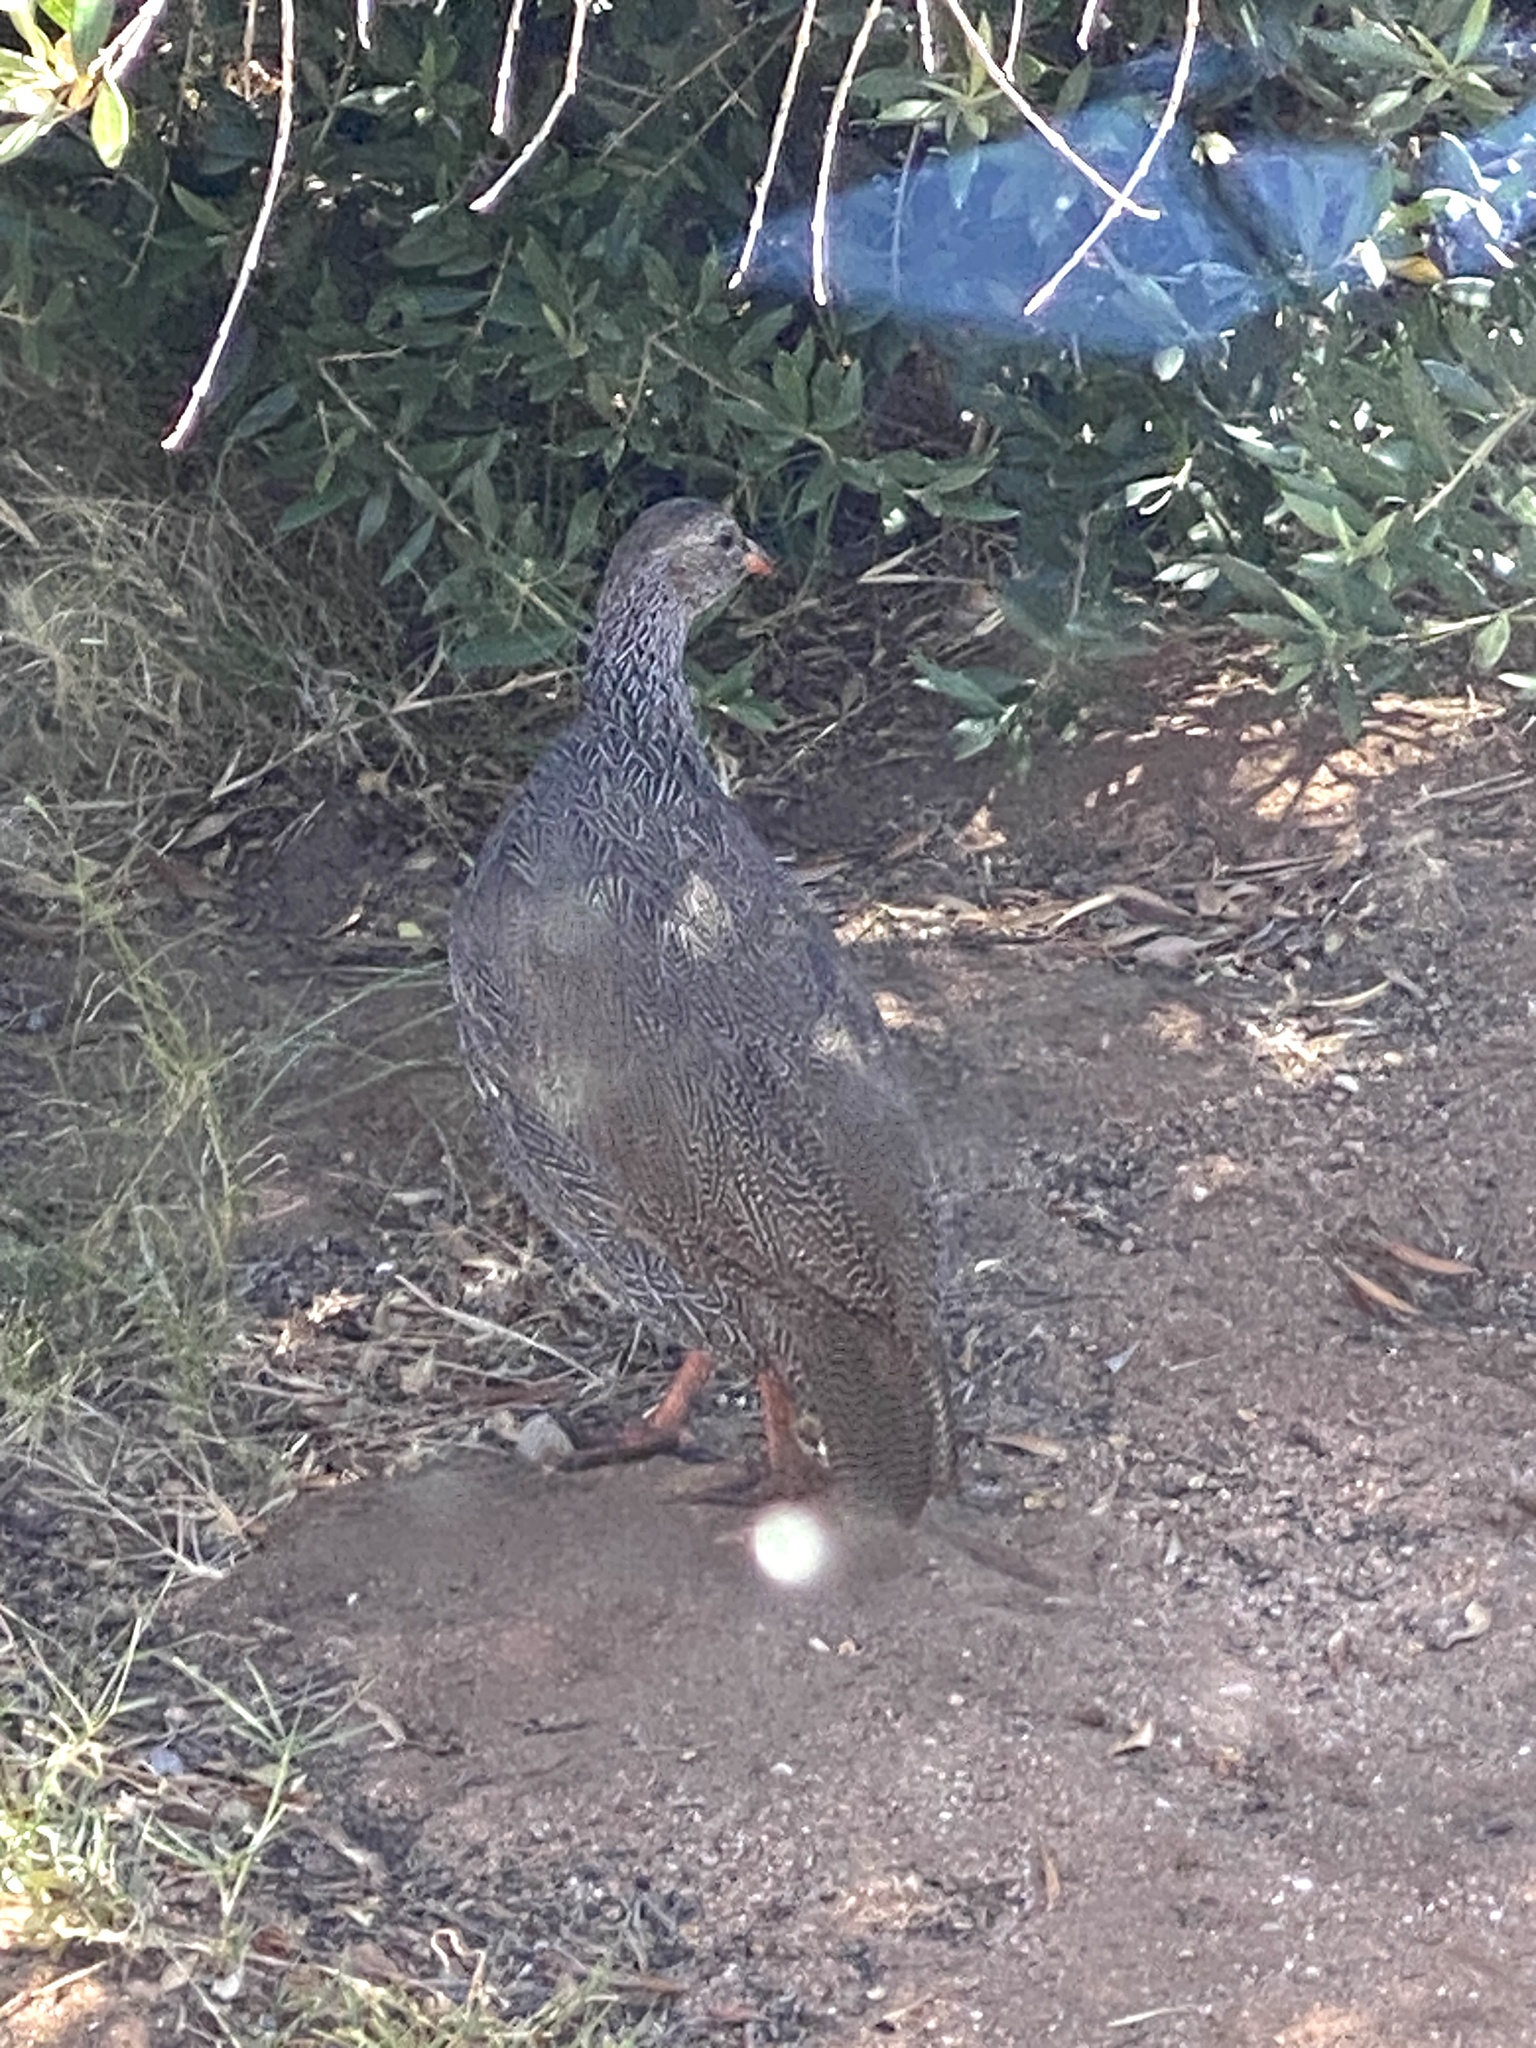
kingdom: Animalia
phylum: Chordata
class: Aves
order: Galliformes
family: Phasianidae
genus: Pternistis
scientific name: Pternistis capensis
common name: Cape spurfowl
